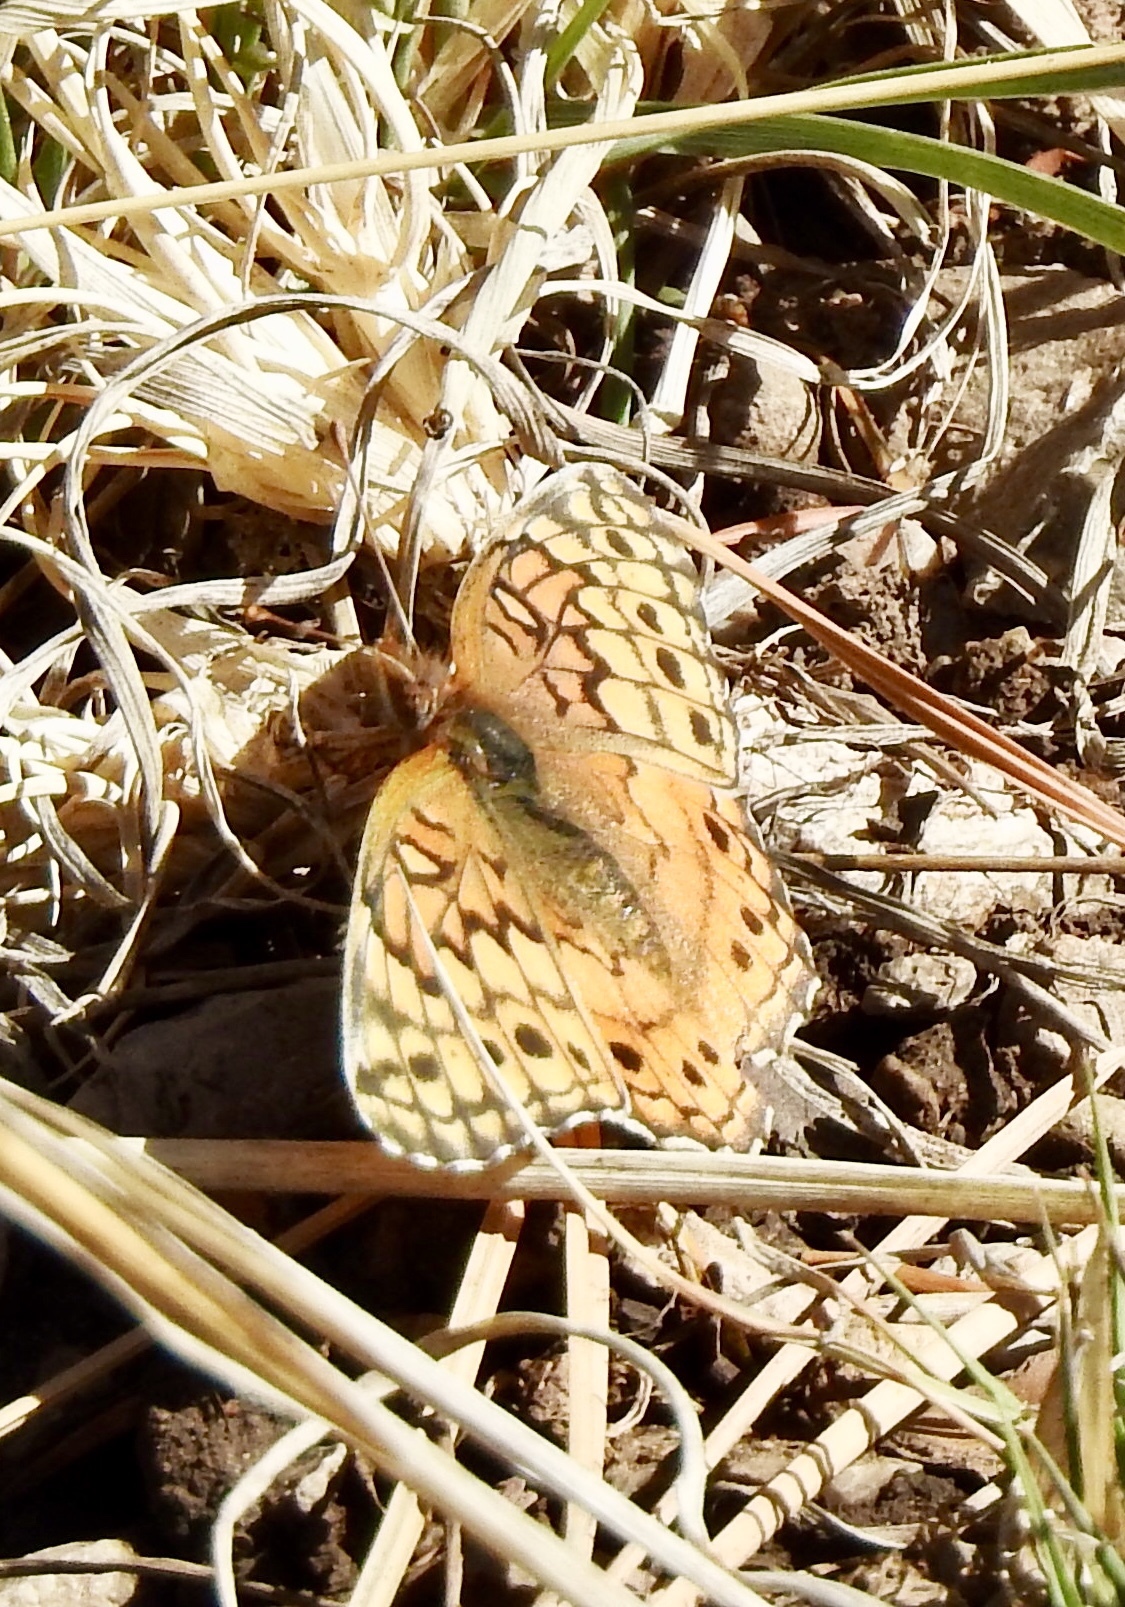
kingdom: Animalia
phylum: Arthropoda
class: Insecta
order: Lepidoptera
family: Nymphalidae
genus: Euptoieta
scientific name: Euptoieta claudia
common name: Variegated fritillary
